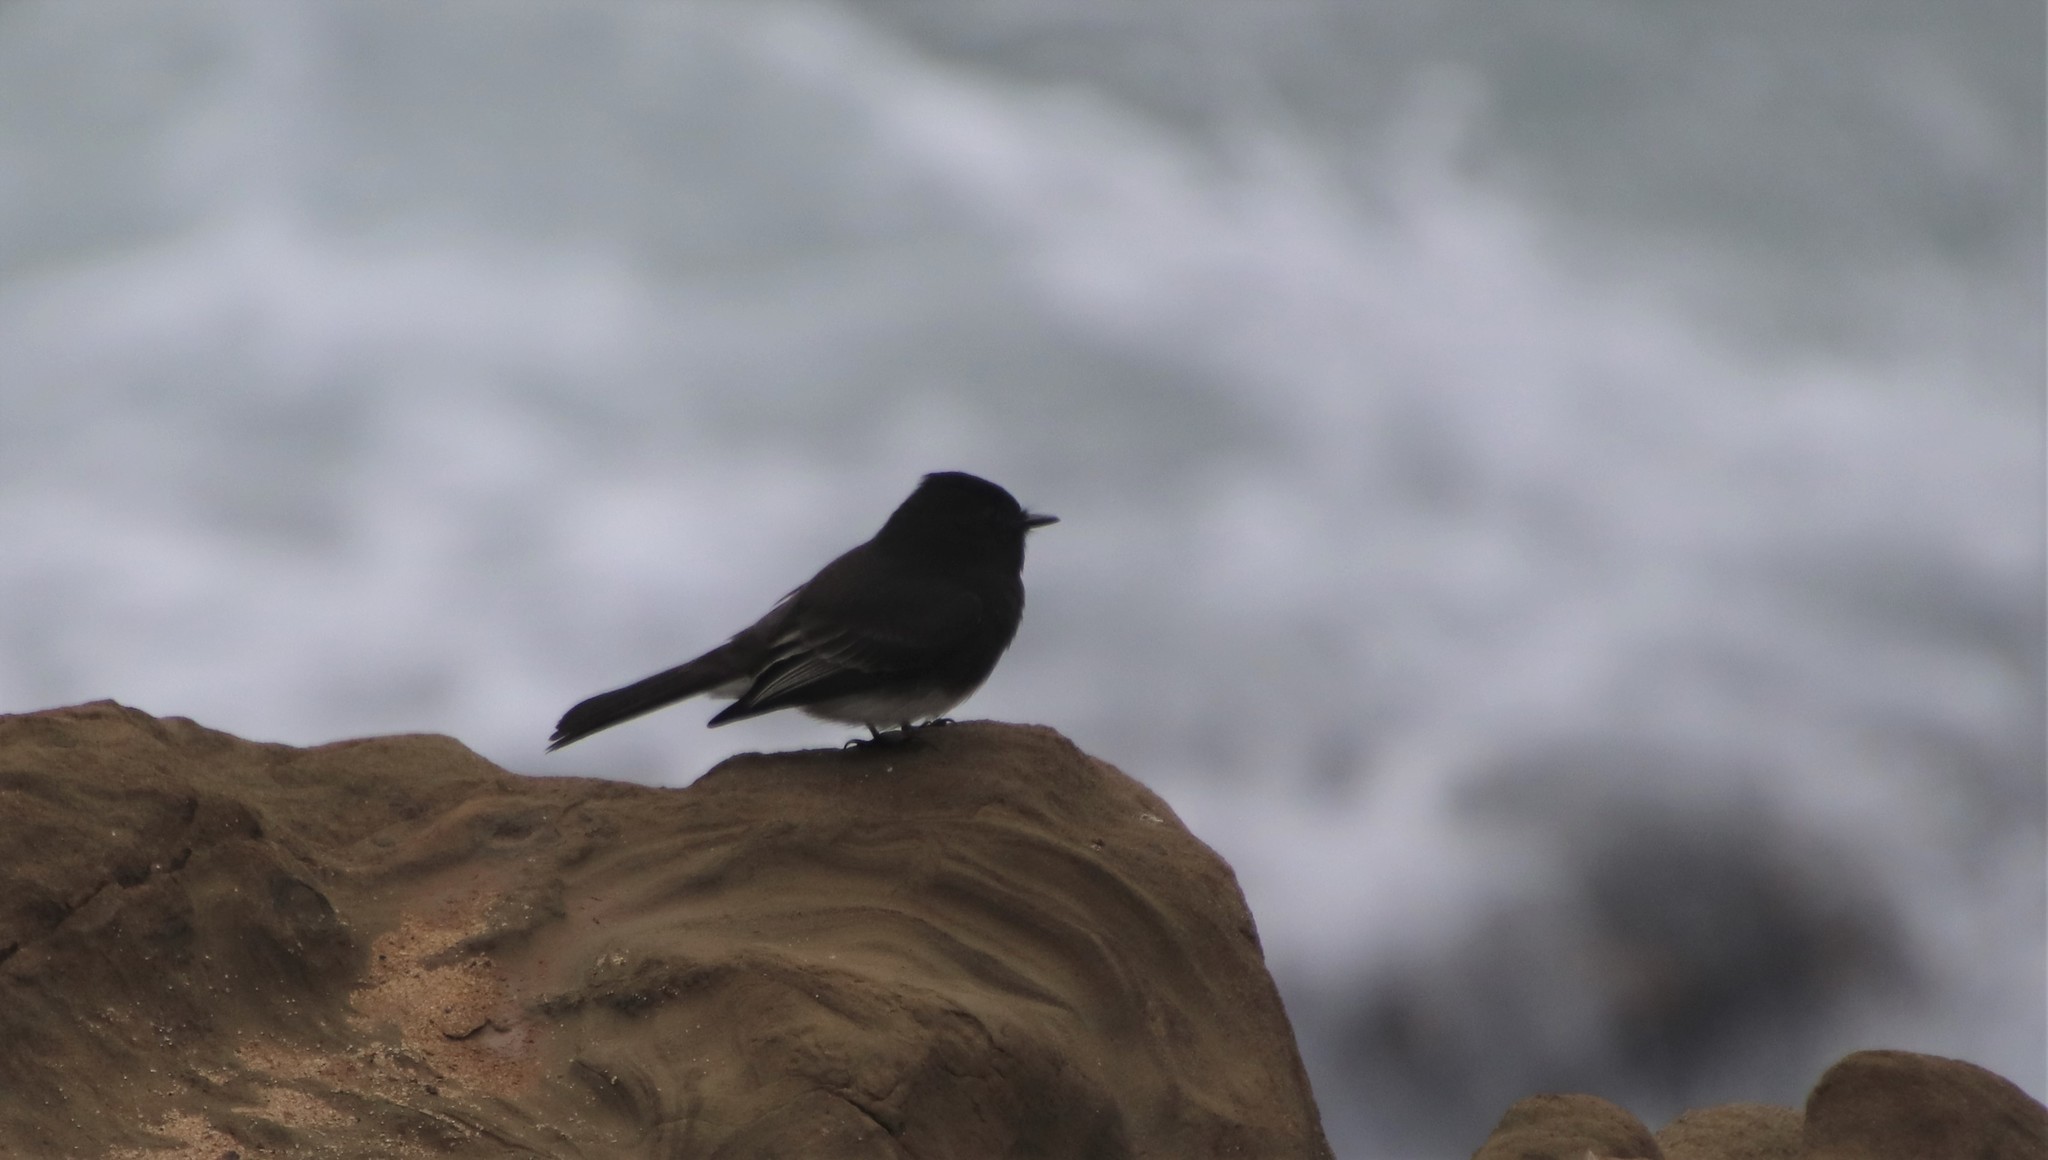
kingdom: Animalia
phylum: Chordata
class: Aves
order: Passeriformes
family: Tyrannidae
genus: Sayornis
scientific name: Sayornis nigricans
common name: Black phoebe
